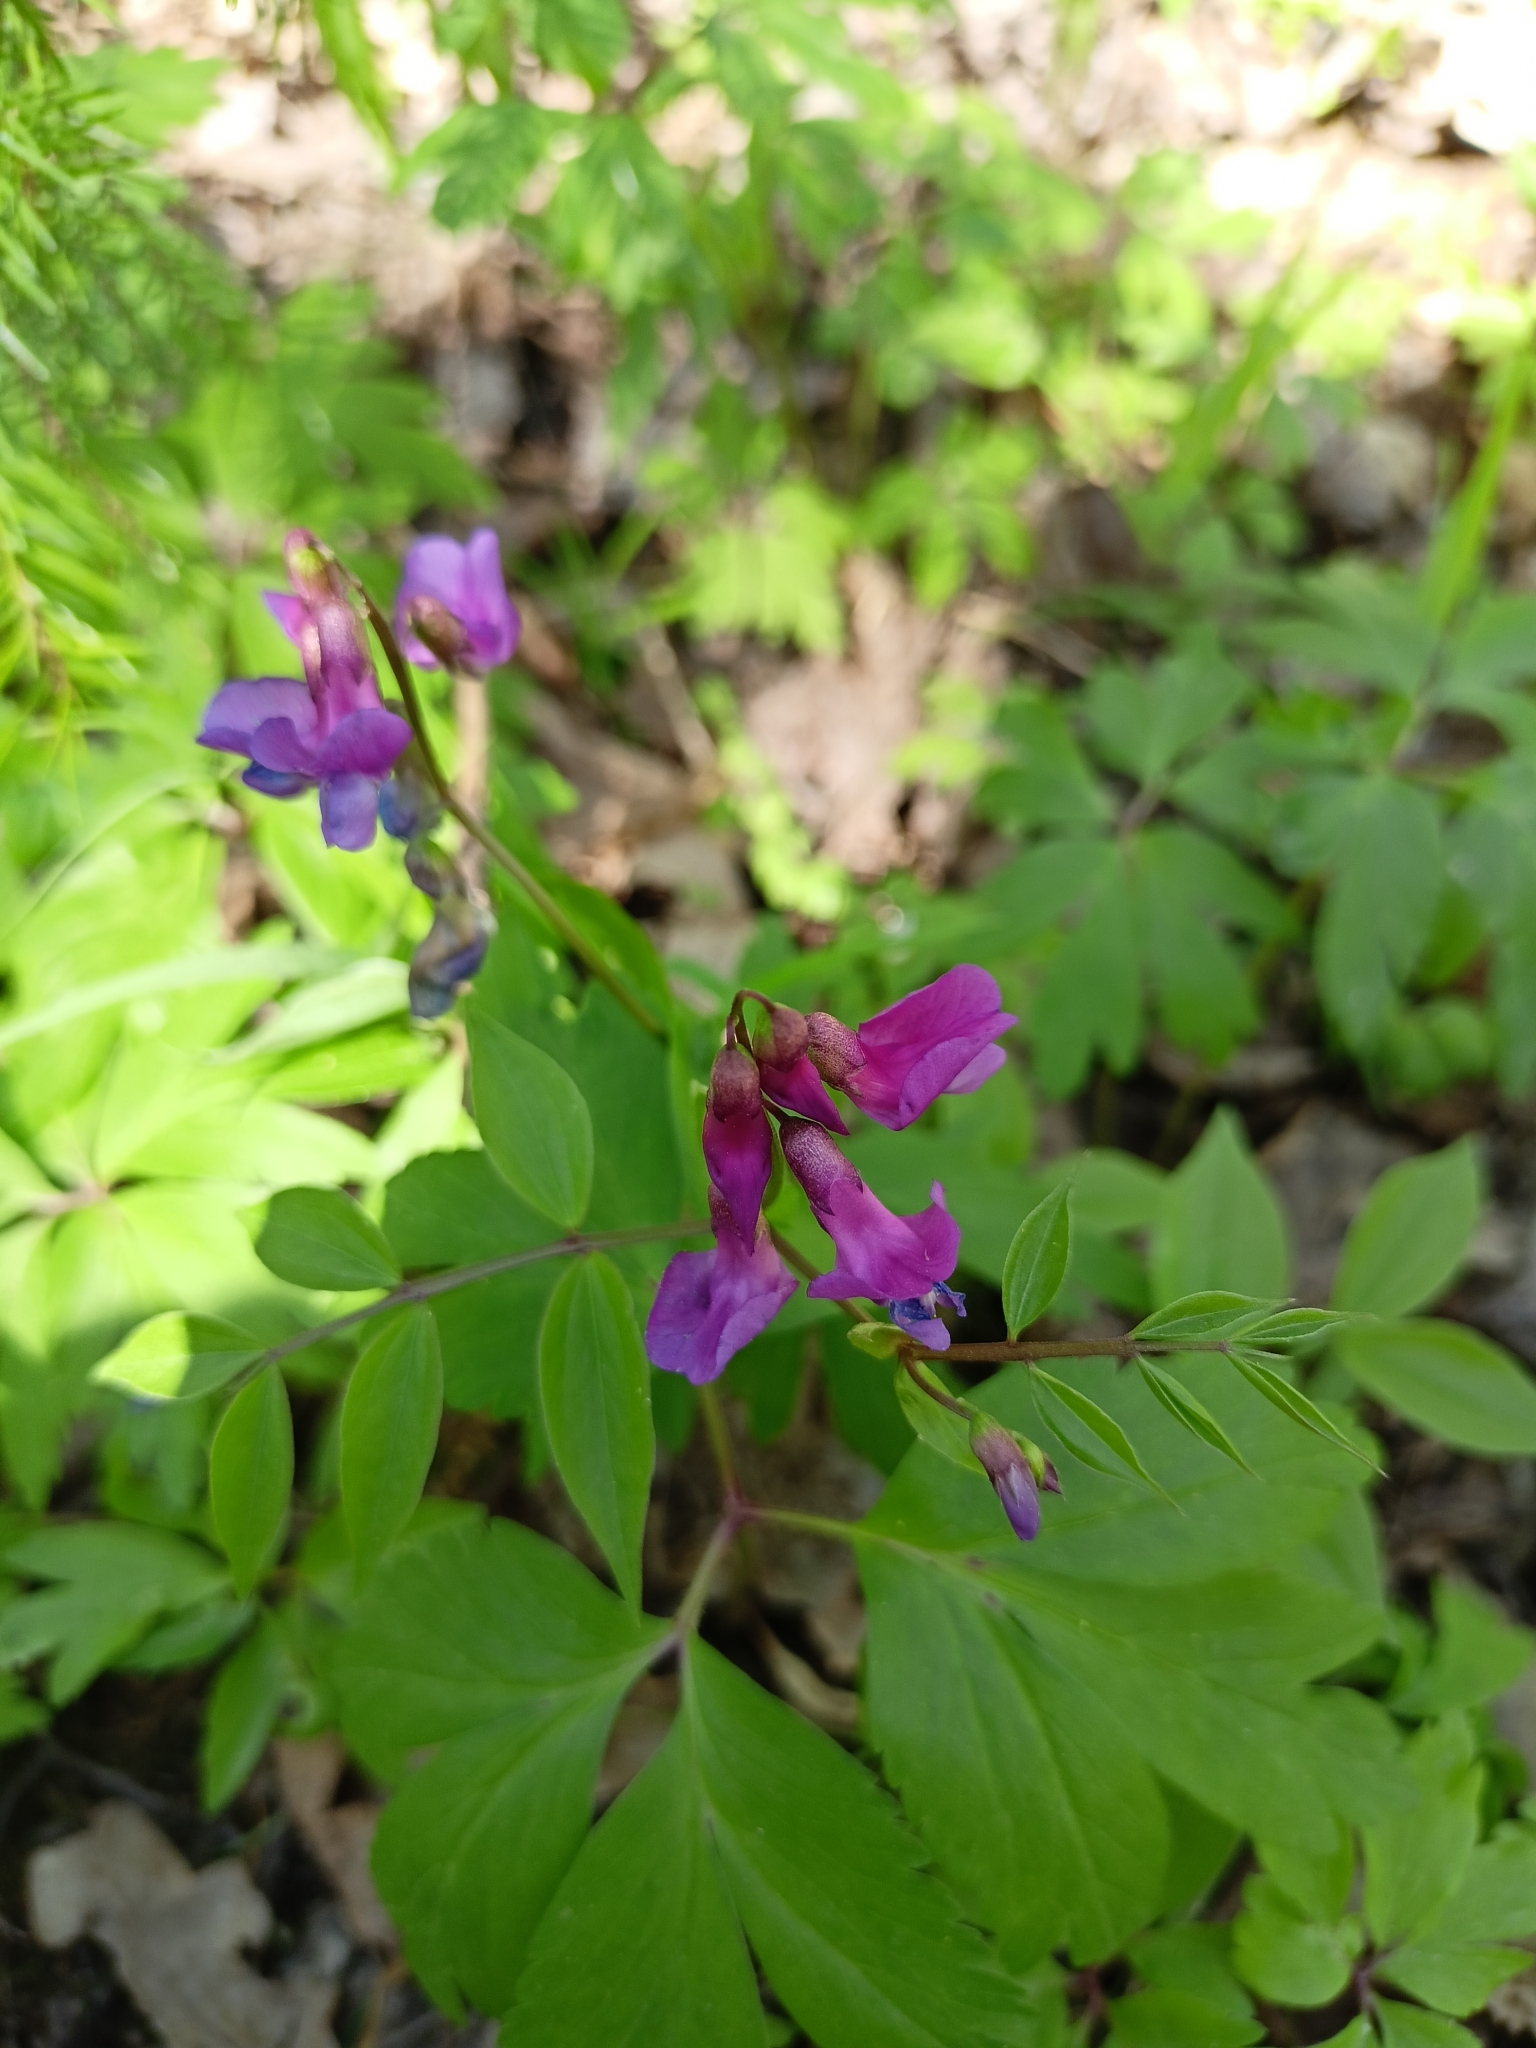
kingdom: Plantae
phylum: Tracheophyta
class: Magnoliopsida
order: Fabales
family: Fabaceae
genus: Lathyrus
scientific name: Lathyrus vernus
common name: Spring pea
